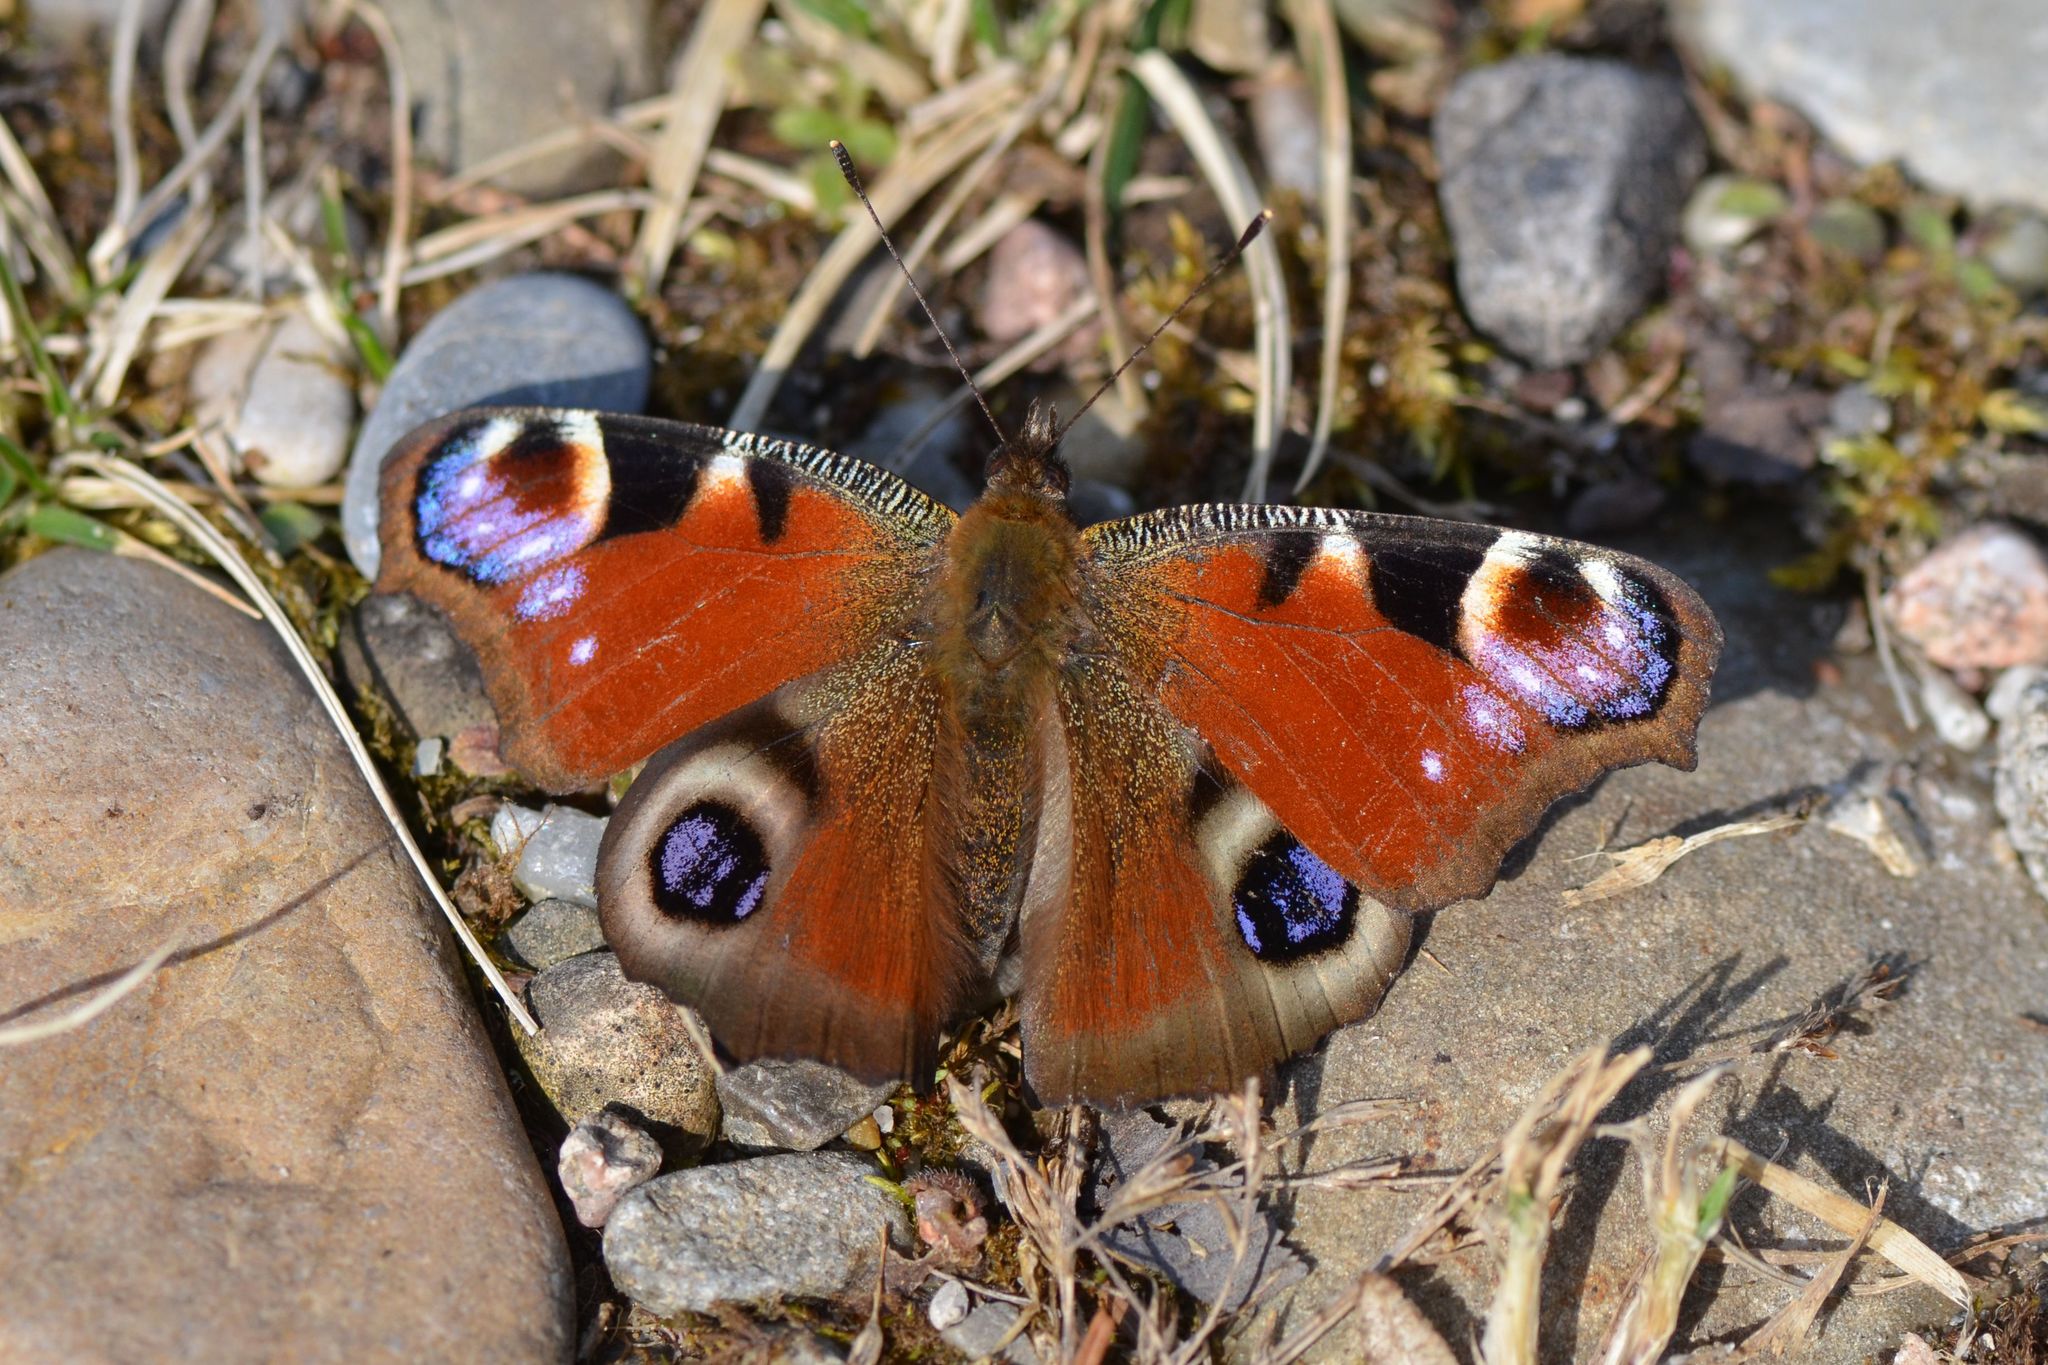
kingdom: Animalia
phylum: Arthropoda
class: Insecta
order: Lepidoptera
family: Nymphalidae
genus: Aglais
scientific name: Aglais io
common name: Peacock
